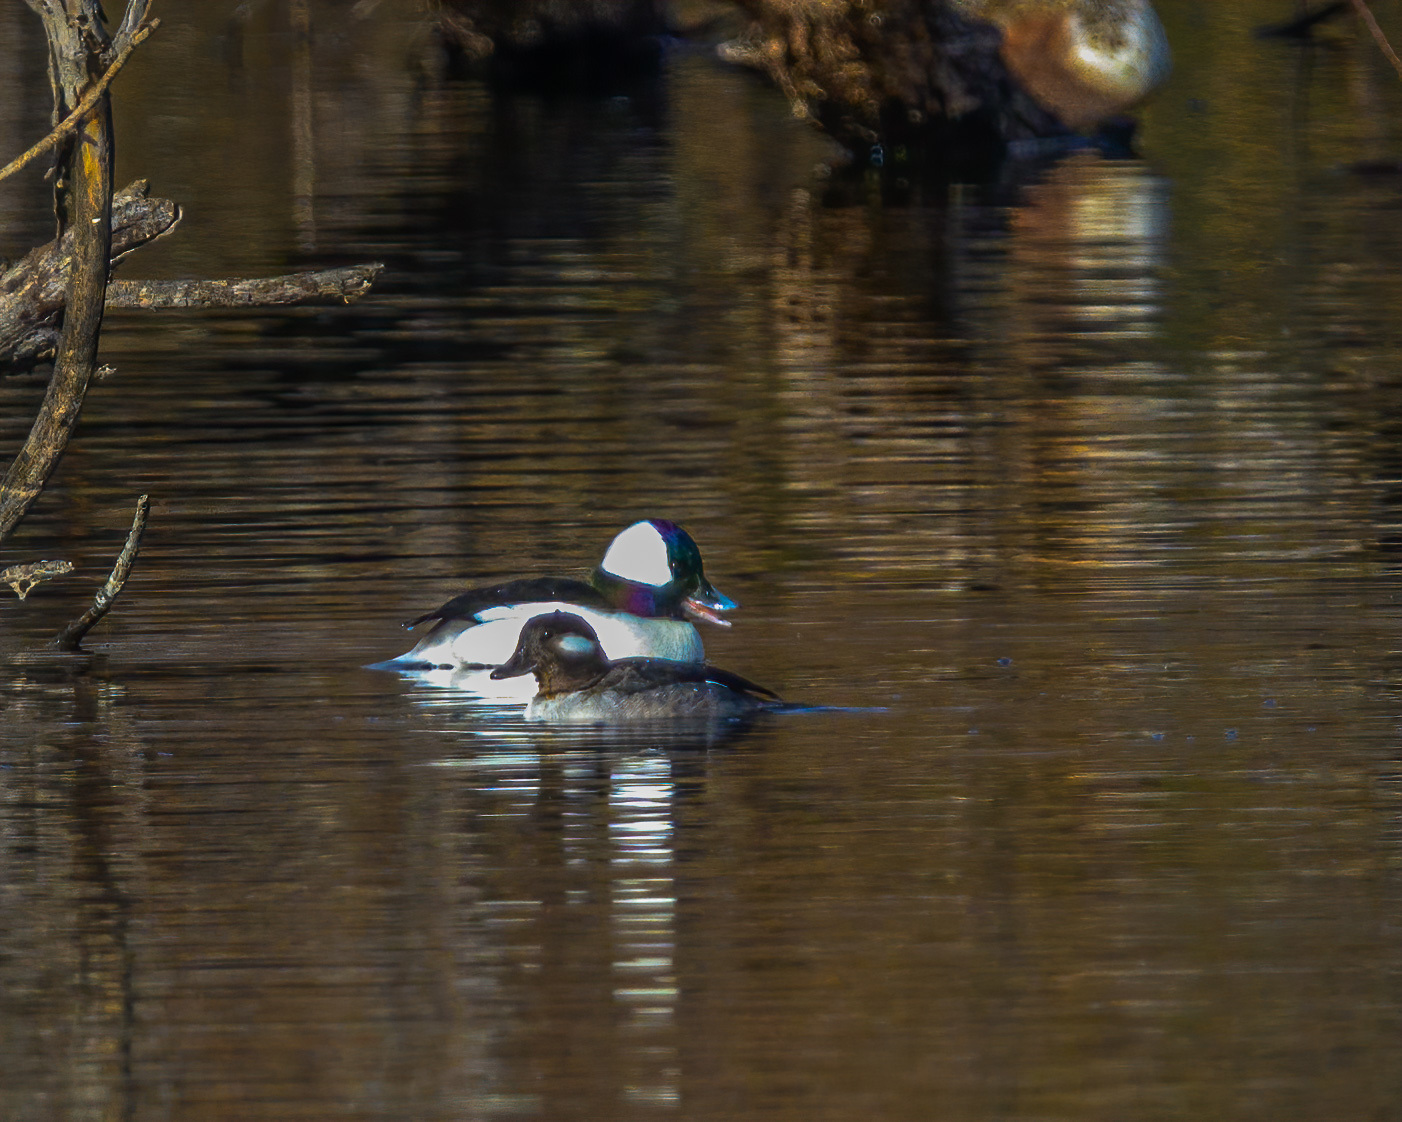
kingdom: Animalia
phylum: Chordata
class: Aves
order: Anseriformes
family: Anatidae
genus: Bucephala
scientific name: Bucephala albeola
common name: Bufflehead
